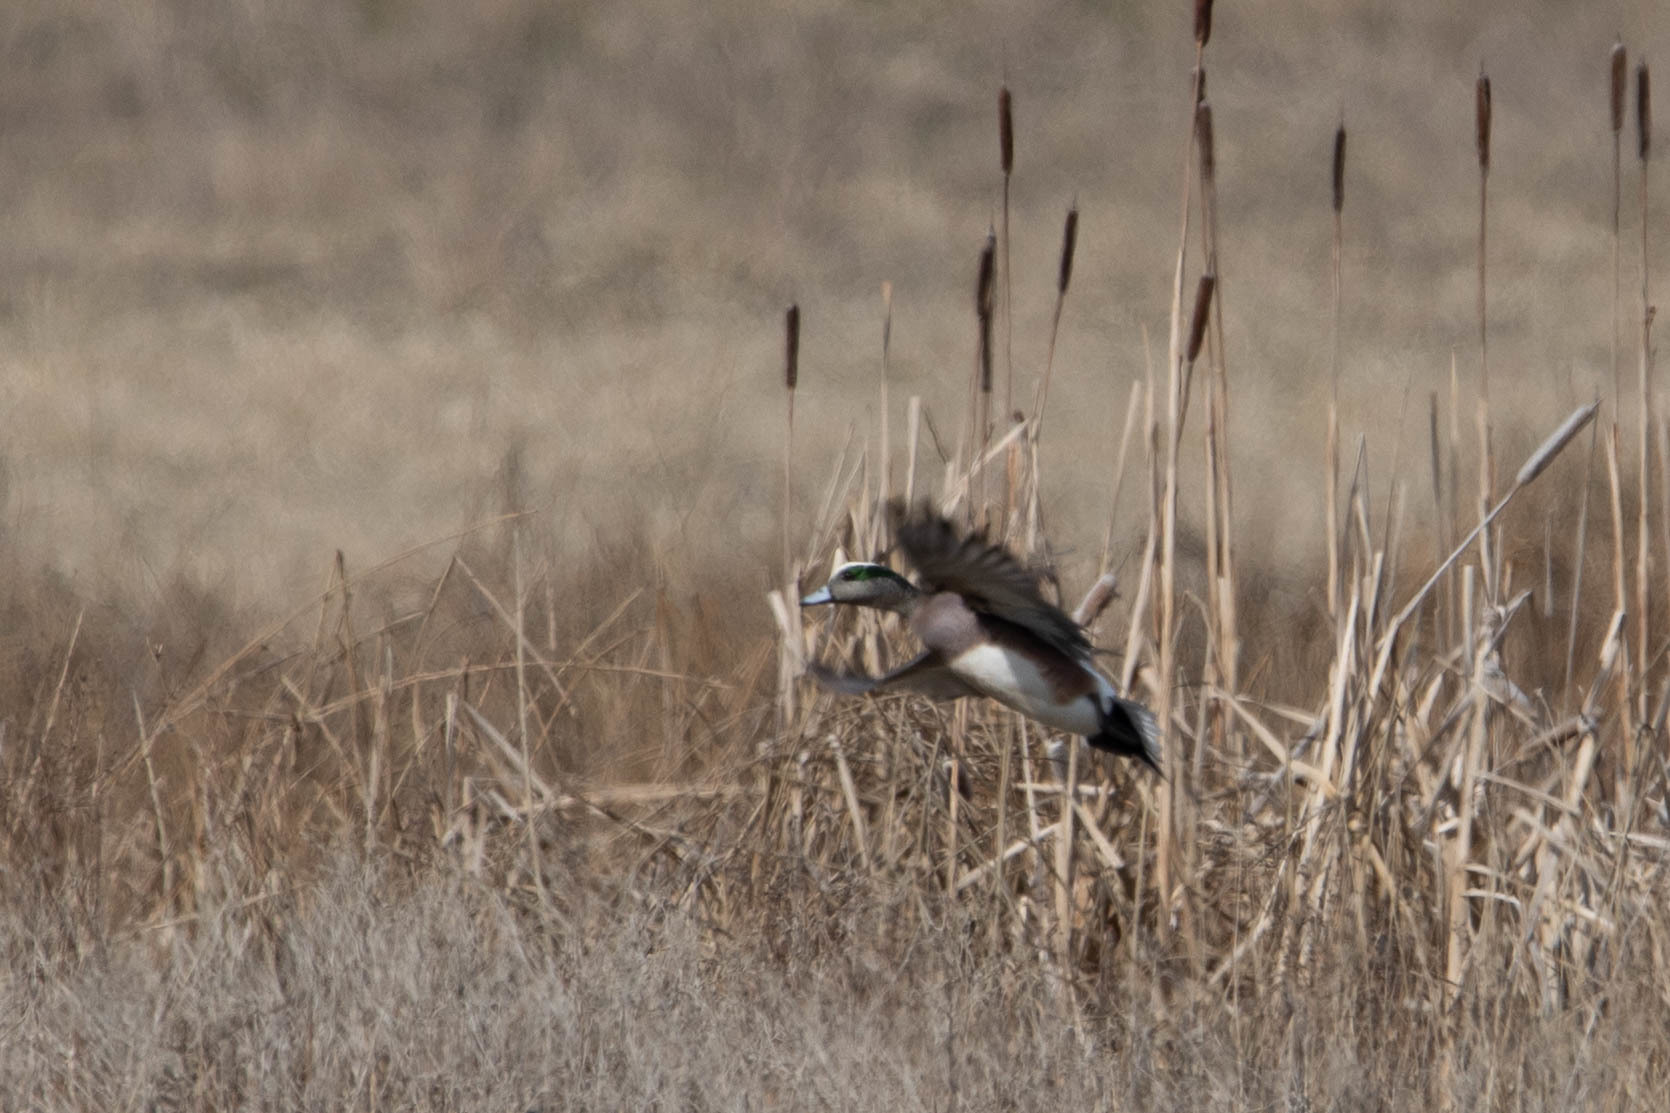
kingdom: Animalia
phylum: Chordata
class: Aves
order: Anseriformes
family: Anatidae
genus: Mareca
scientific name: Mareca americana
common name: American wigeon
